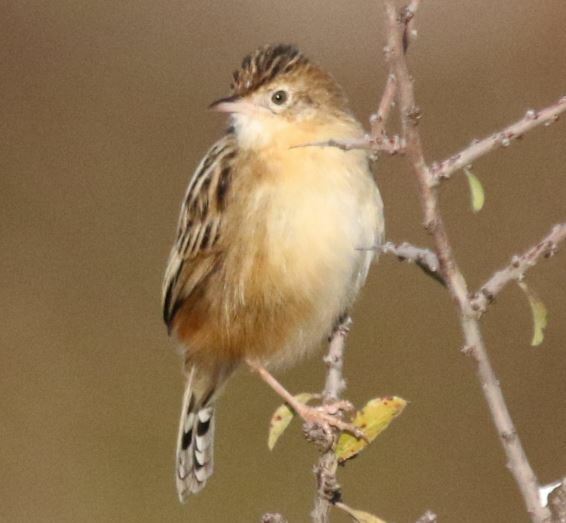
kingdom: Animalia
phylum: Chordata
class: Aves
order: Passeriformes
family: Cisticolidae
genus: Cisticola
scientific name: Cisticola juncidis
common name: Zitting cisticola
